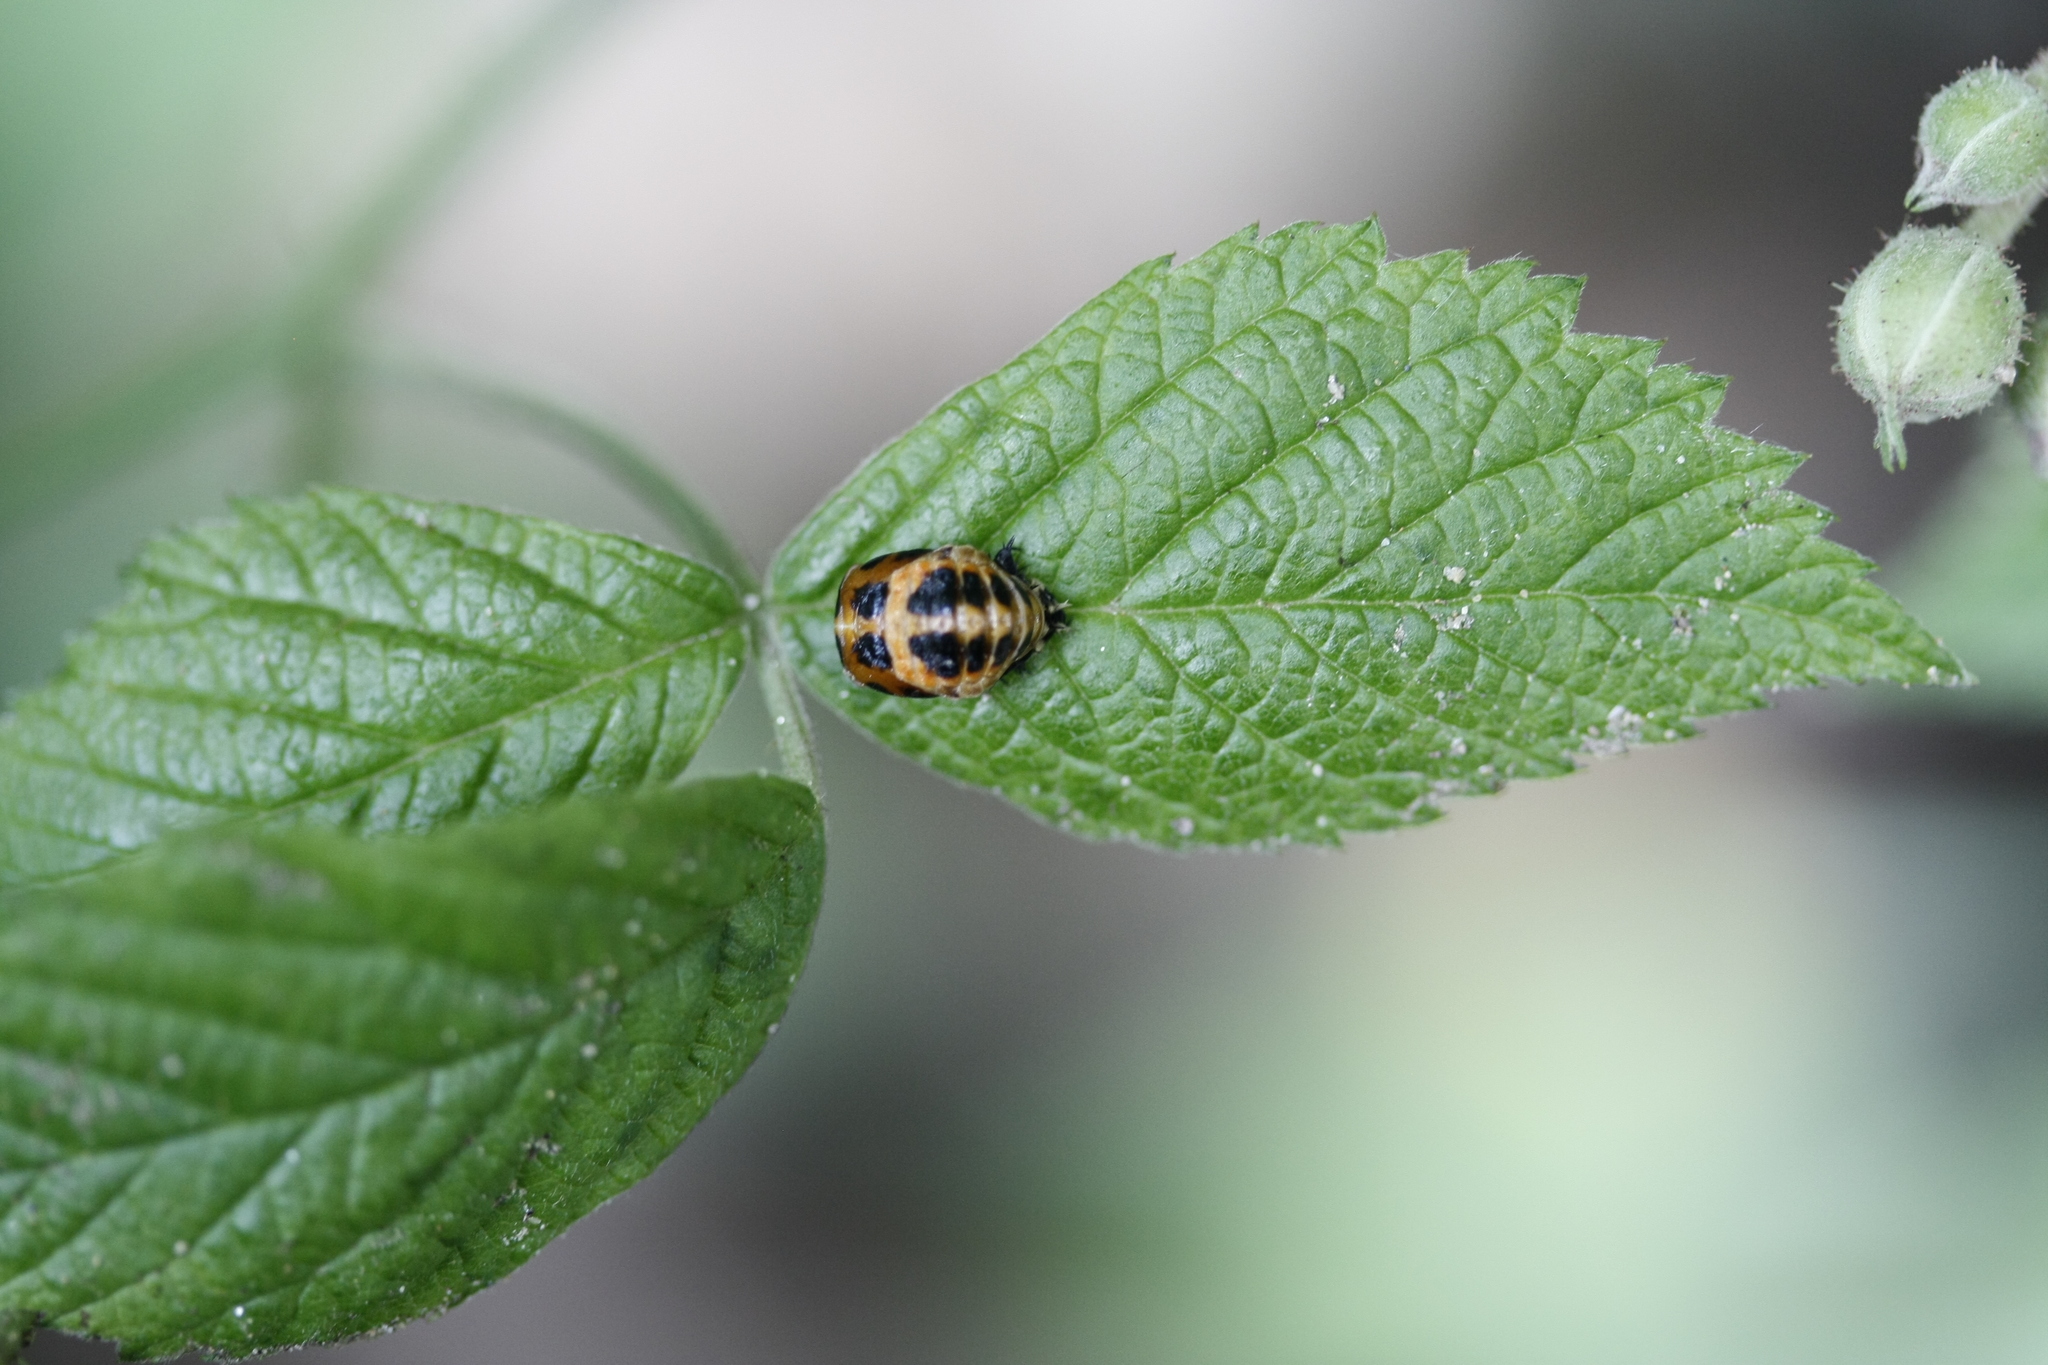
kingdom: Animalia
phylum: Arthropoda
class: Insecta
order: Coleoptera
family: Coccinellidae
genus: Harmonia
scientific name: Harmonia axyridis
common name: Harlequin ladybird
